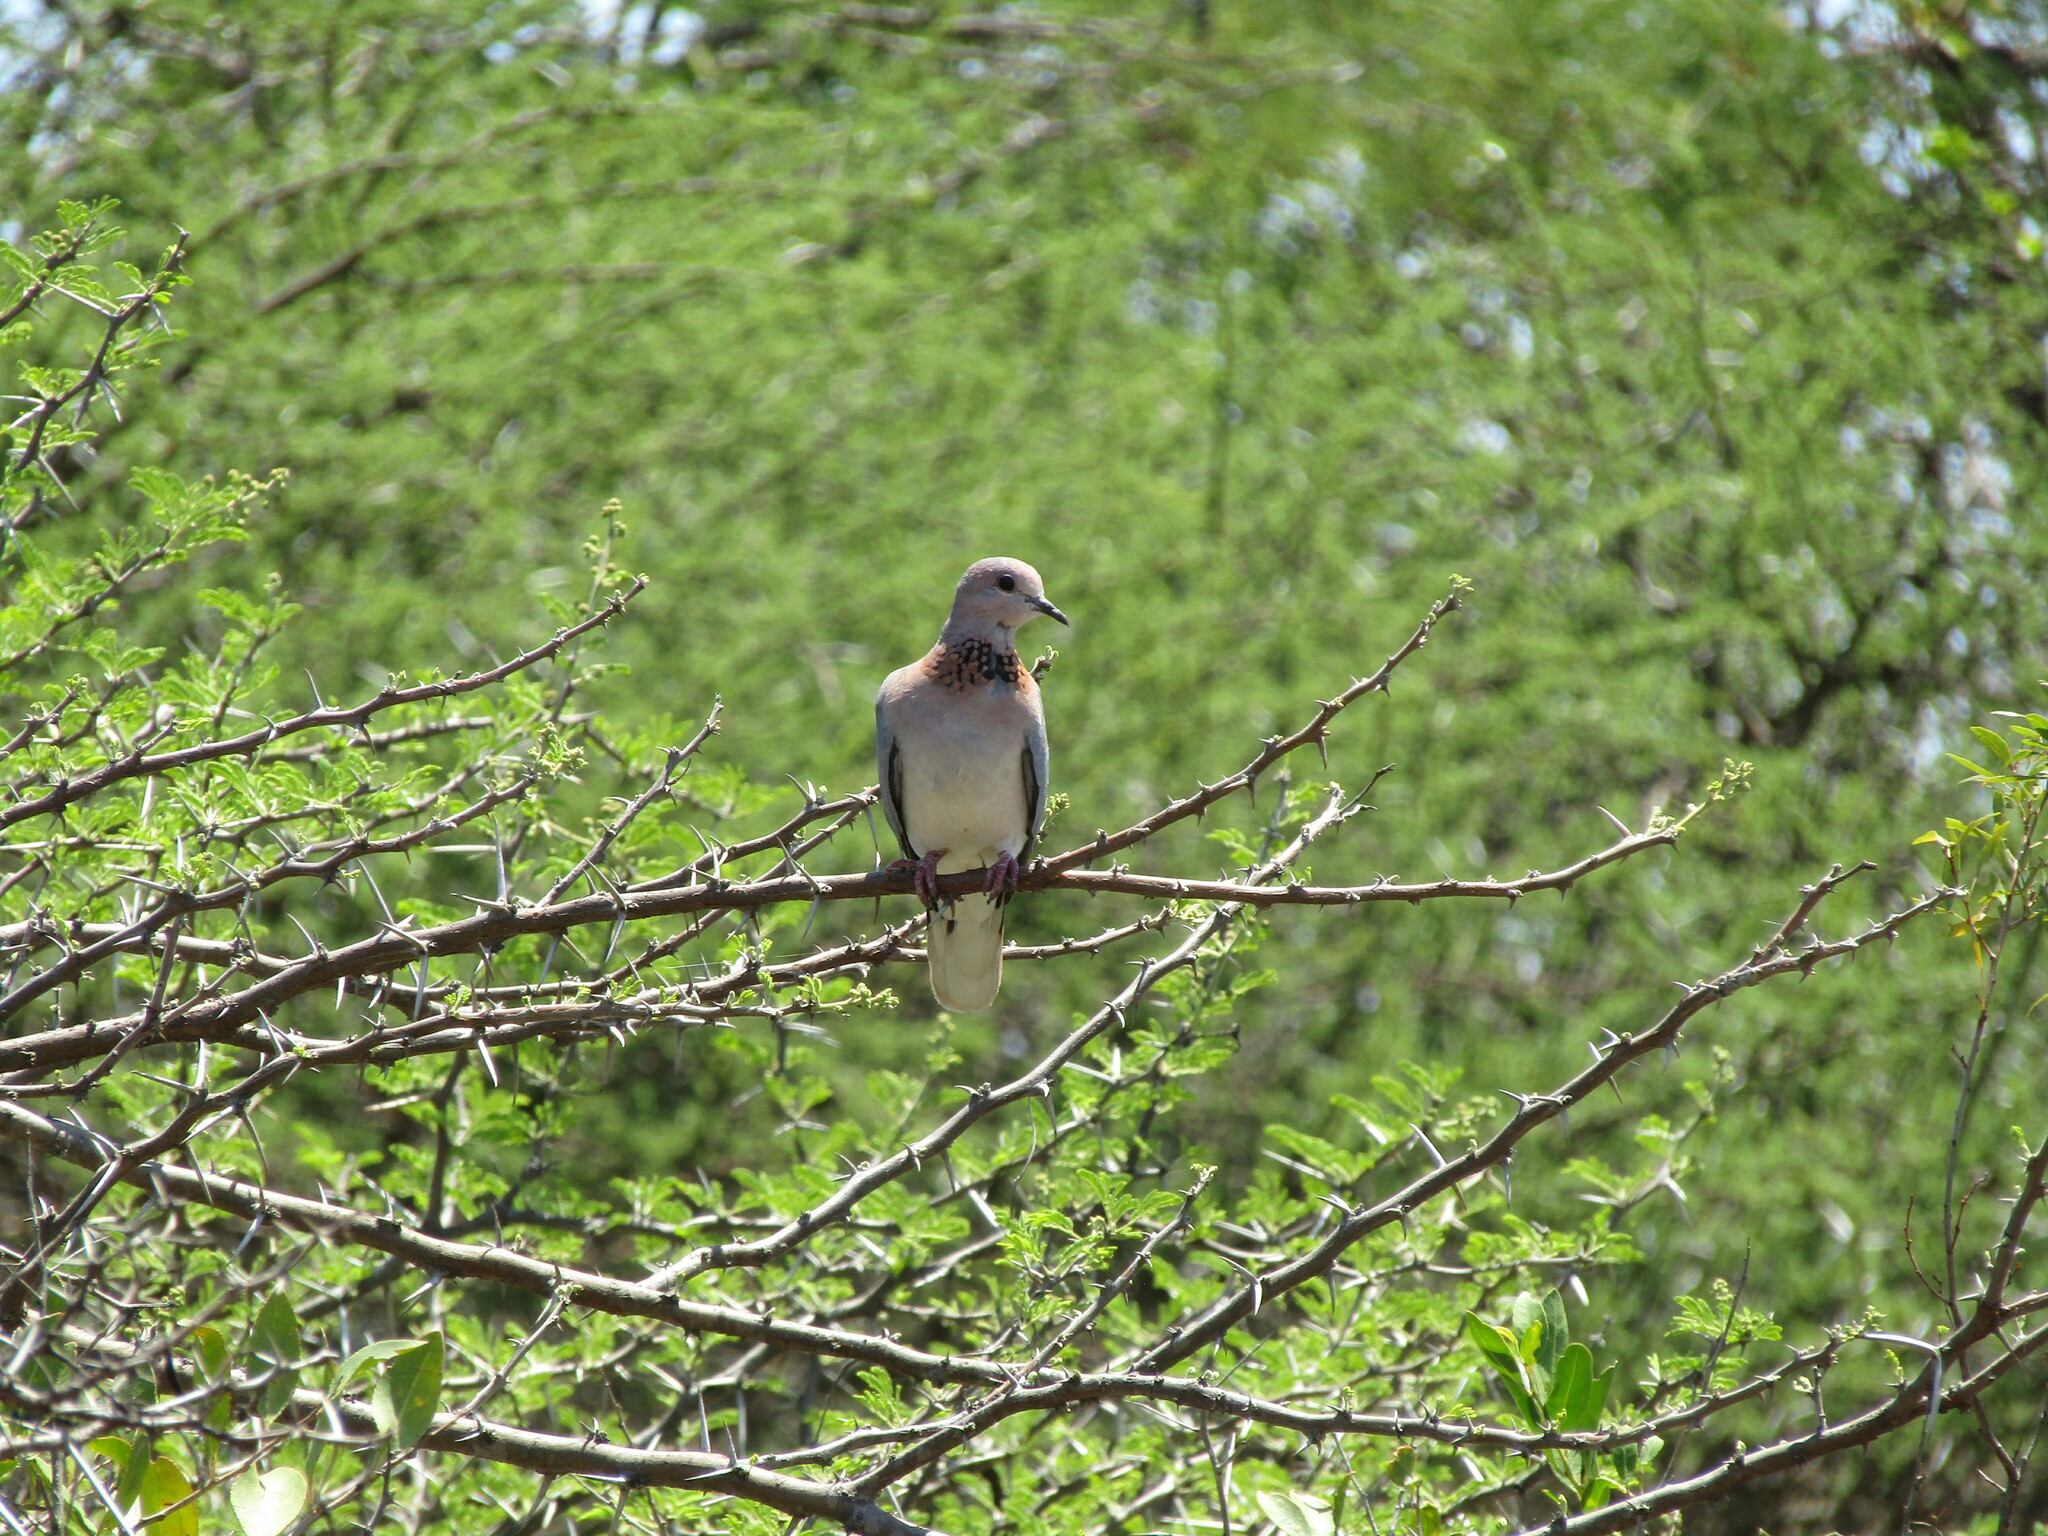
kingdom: Animalia
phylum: Chordata
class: Aves
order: Columbiformes
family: Columbidae
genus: Spilopelia
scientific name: Spilopelia senegalensis
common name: Laughing dove
